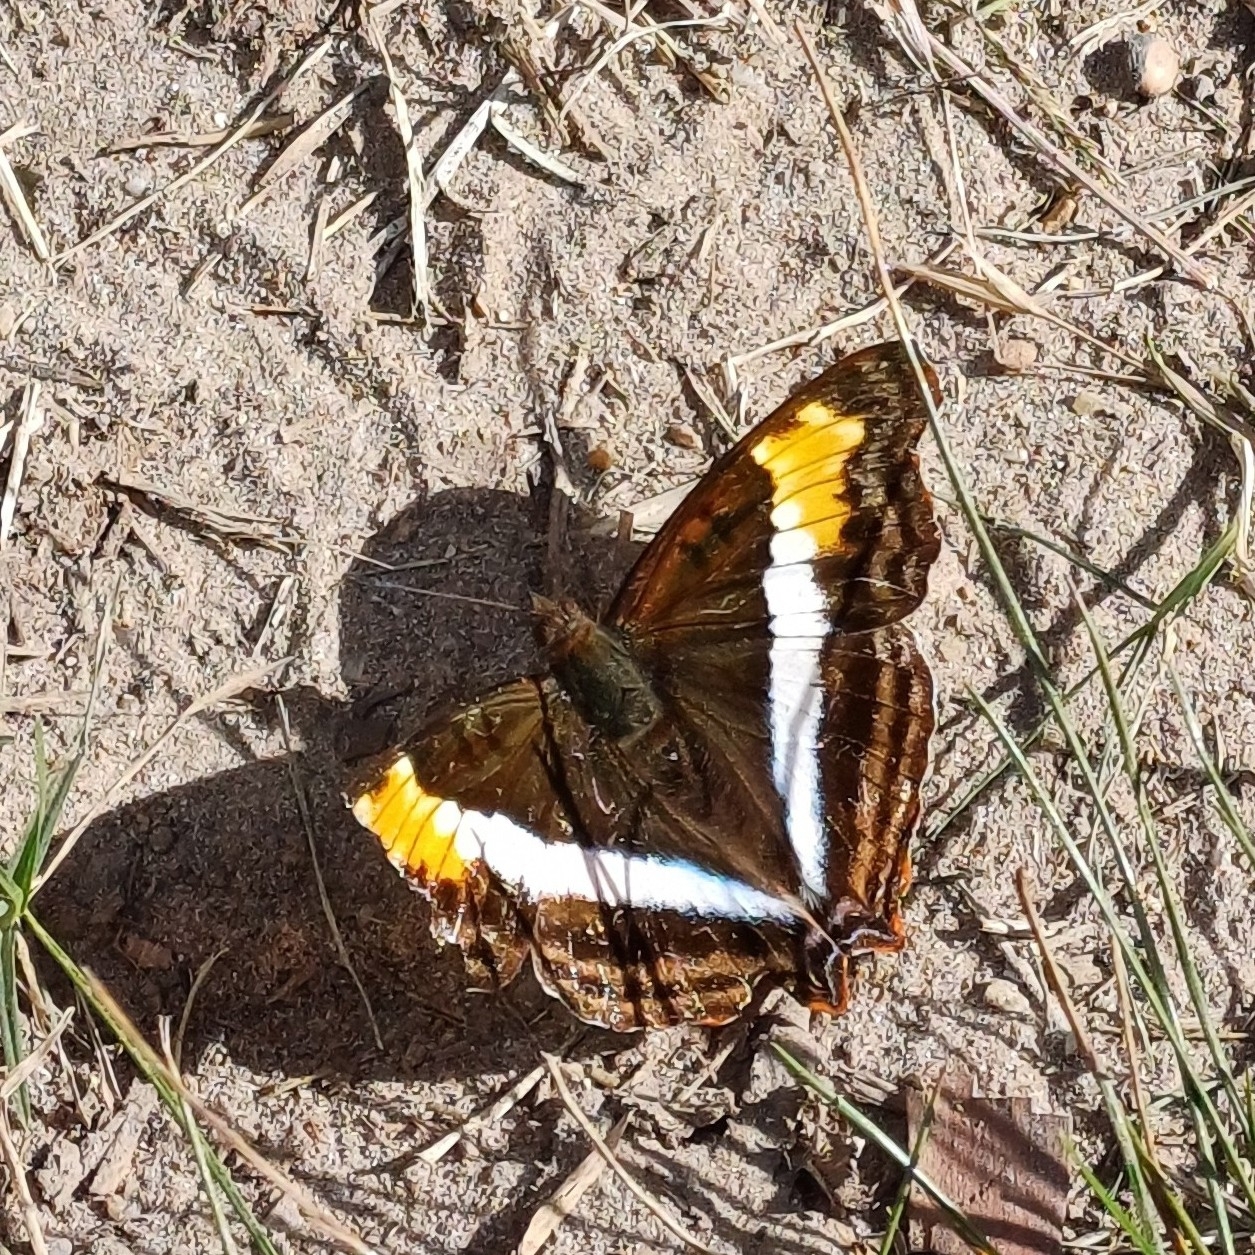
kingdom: Animalia
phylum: Arthropoda
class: Insecta
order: Lepidoptera
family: Nymphalidae
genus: Doxocopa
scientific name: Doxocopa laurentia
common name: Turquoise emperor
